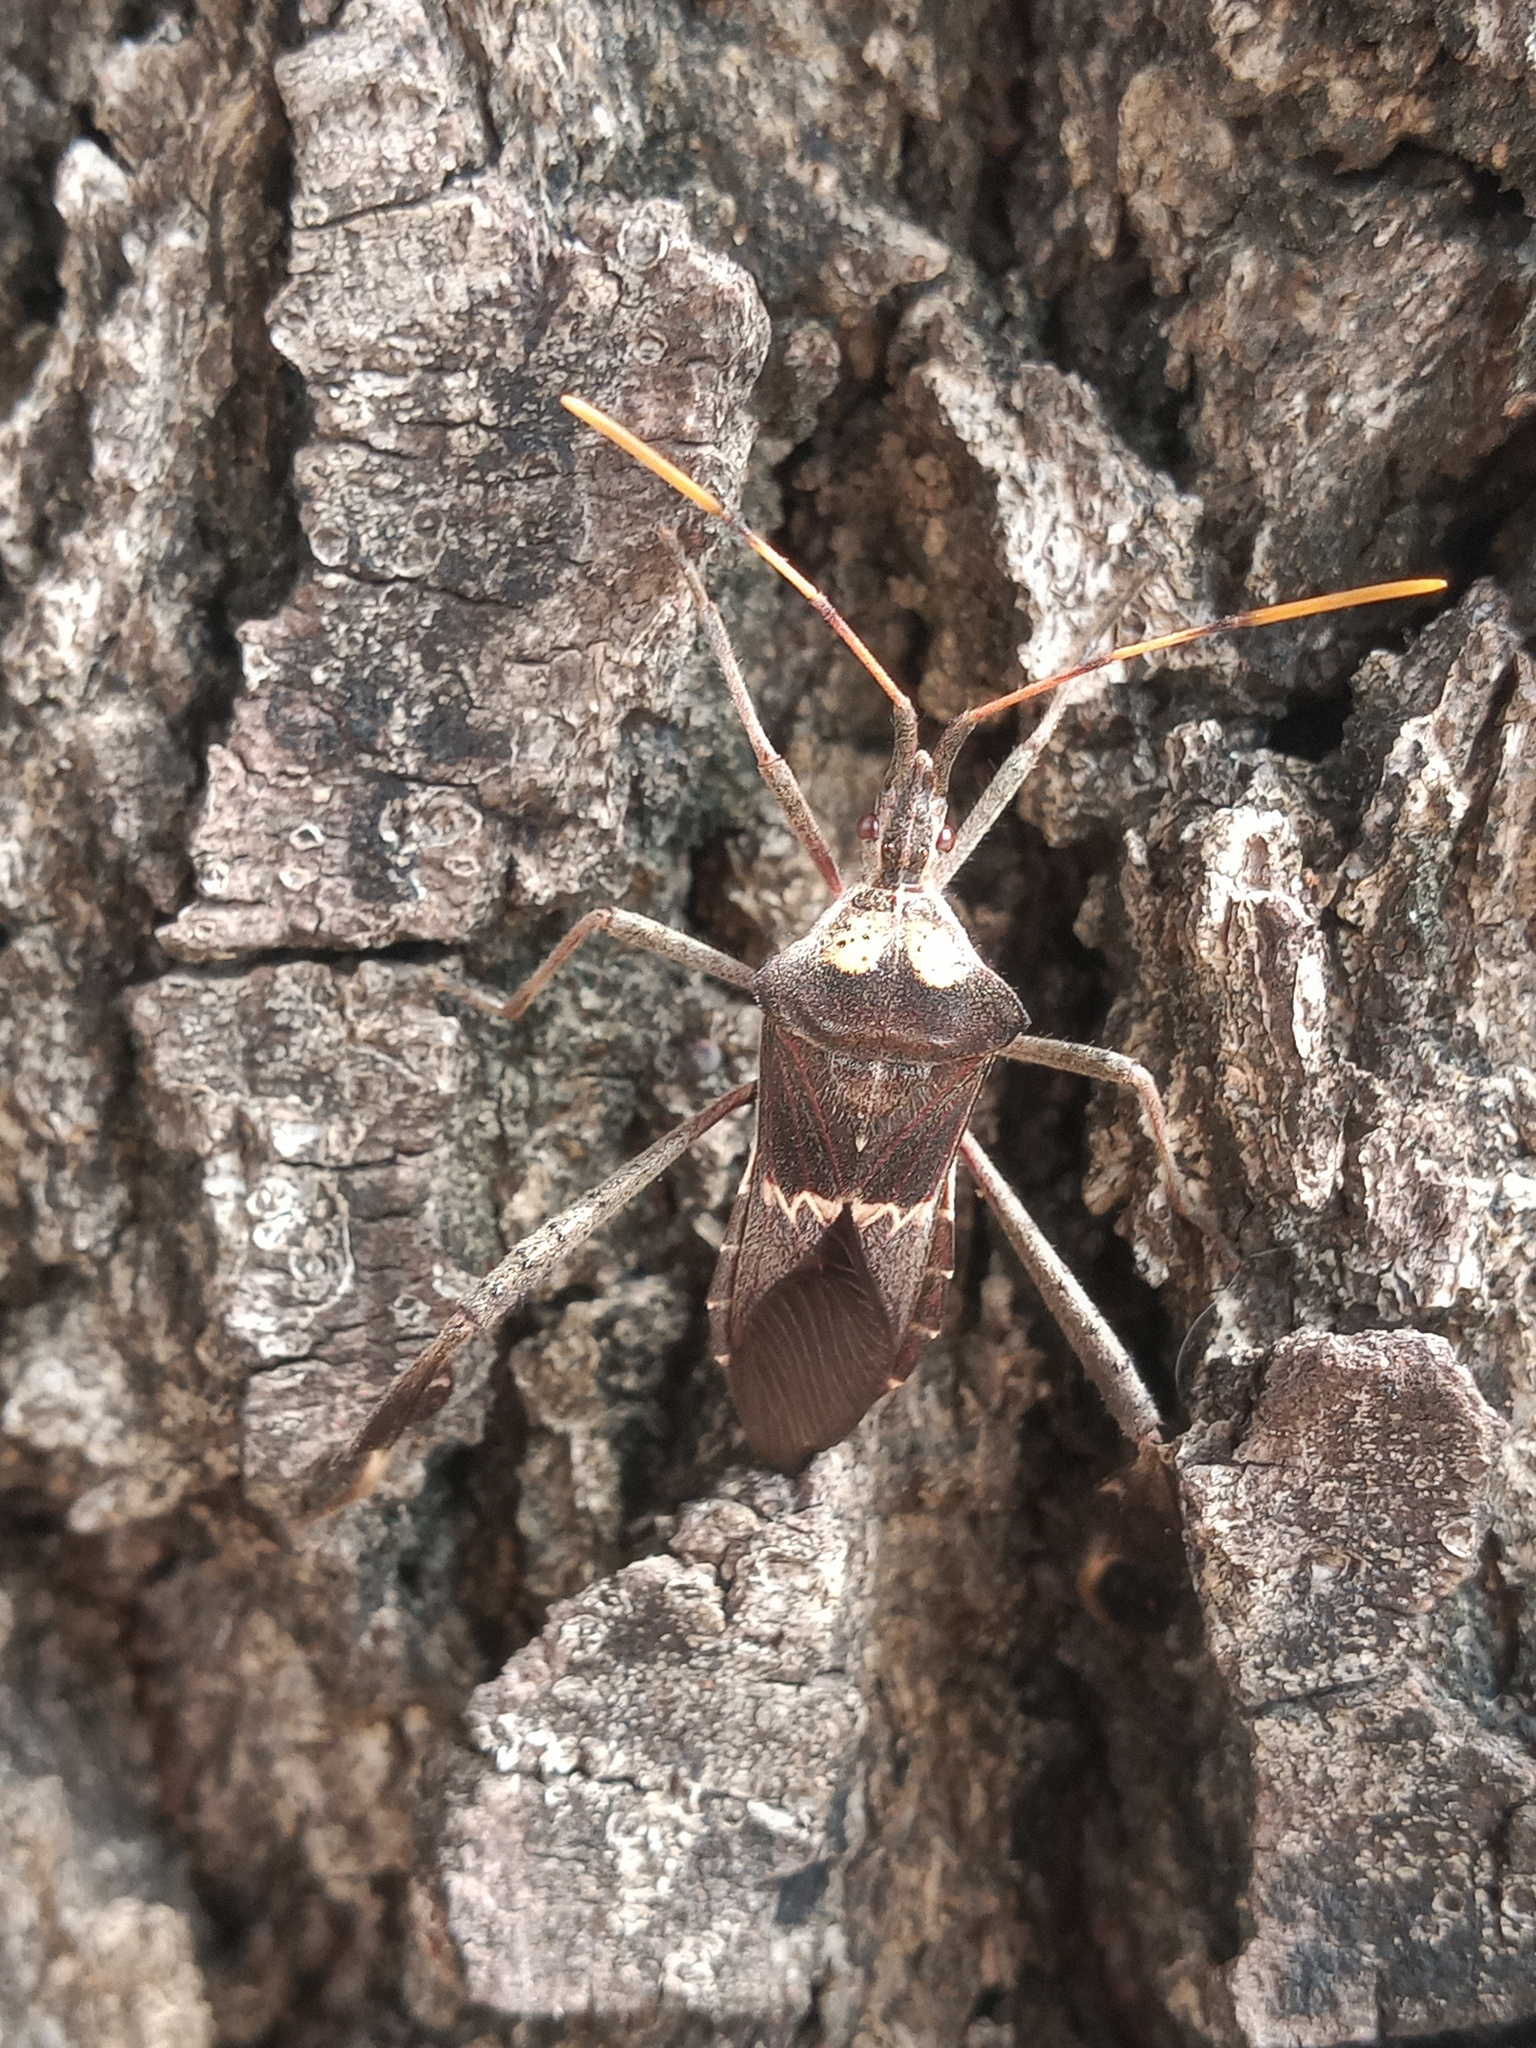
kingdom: Animalia
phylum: Arthropoda
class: Insecta
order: Hemiptera
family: Coreidae
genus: Leptoglossus
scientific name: Leptoglossus zonatus
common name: Large-legged bug
